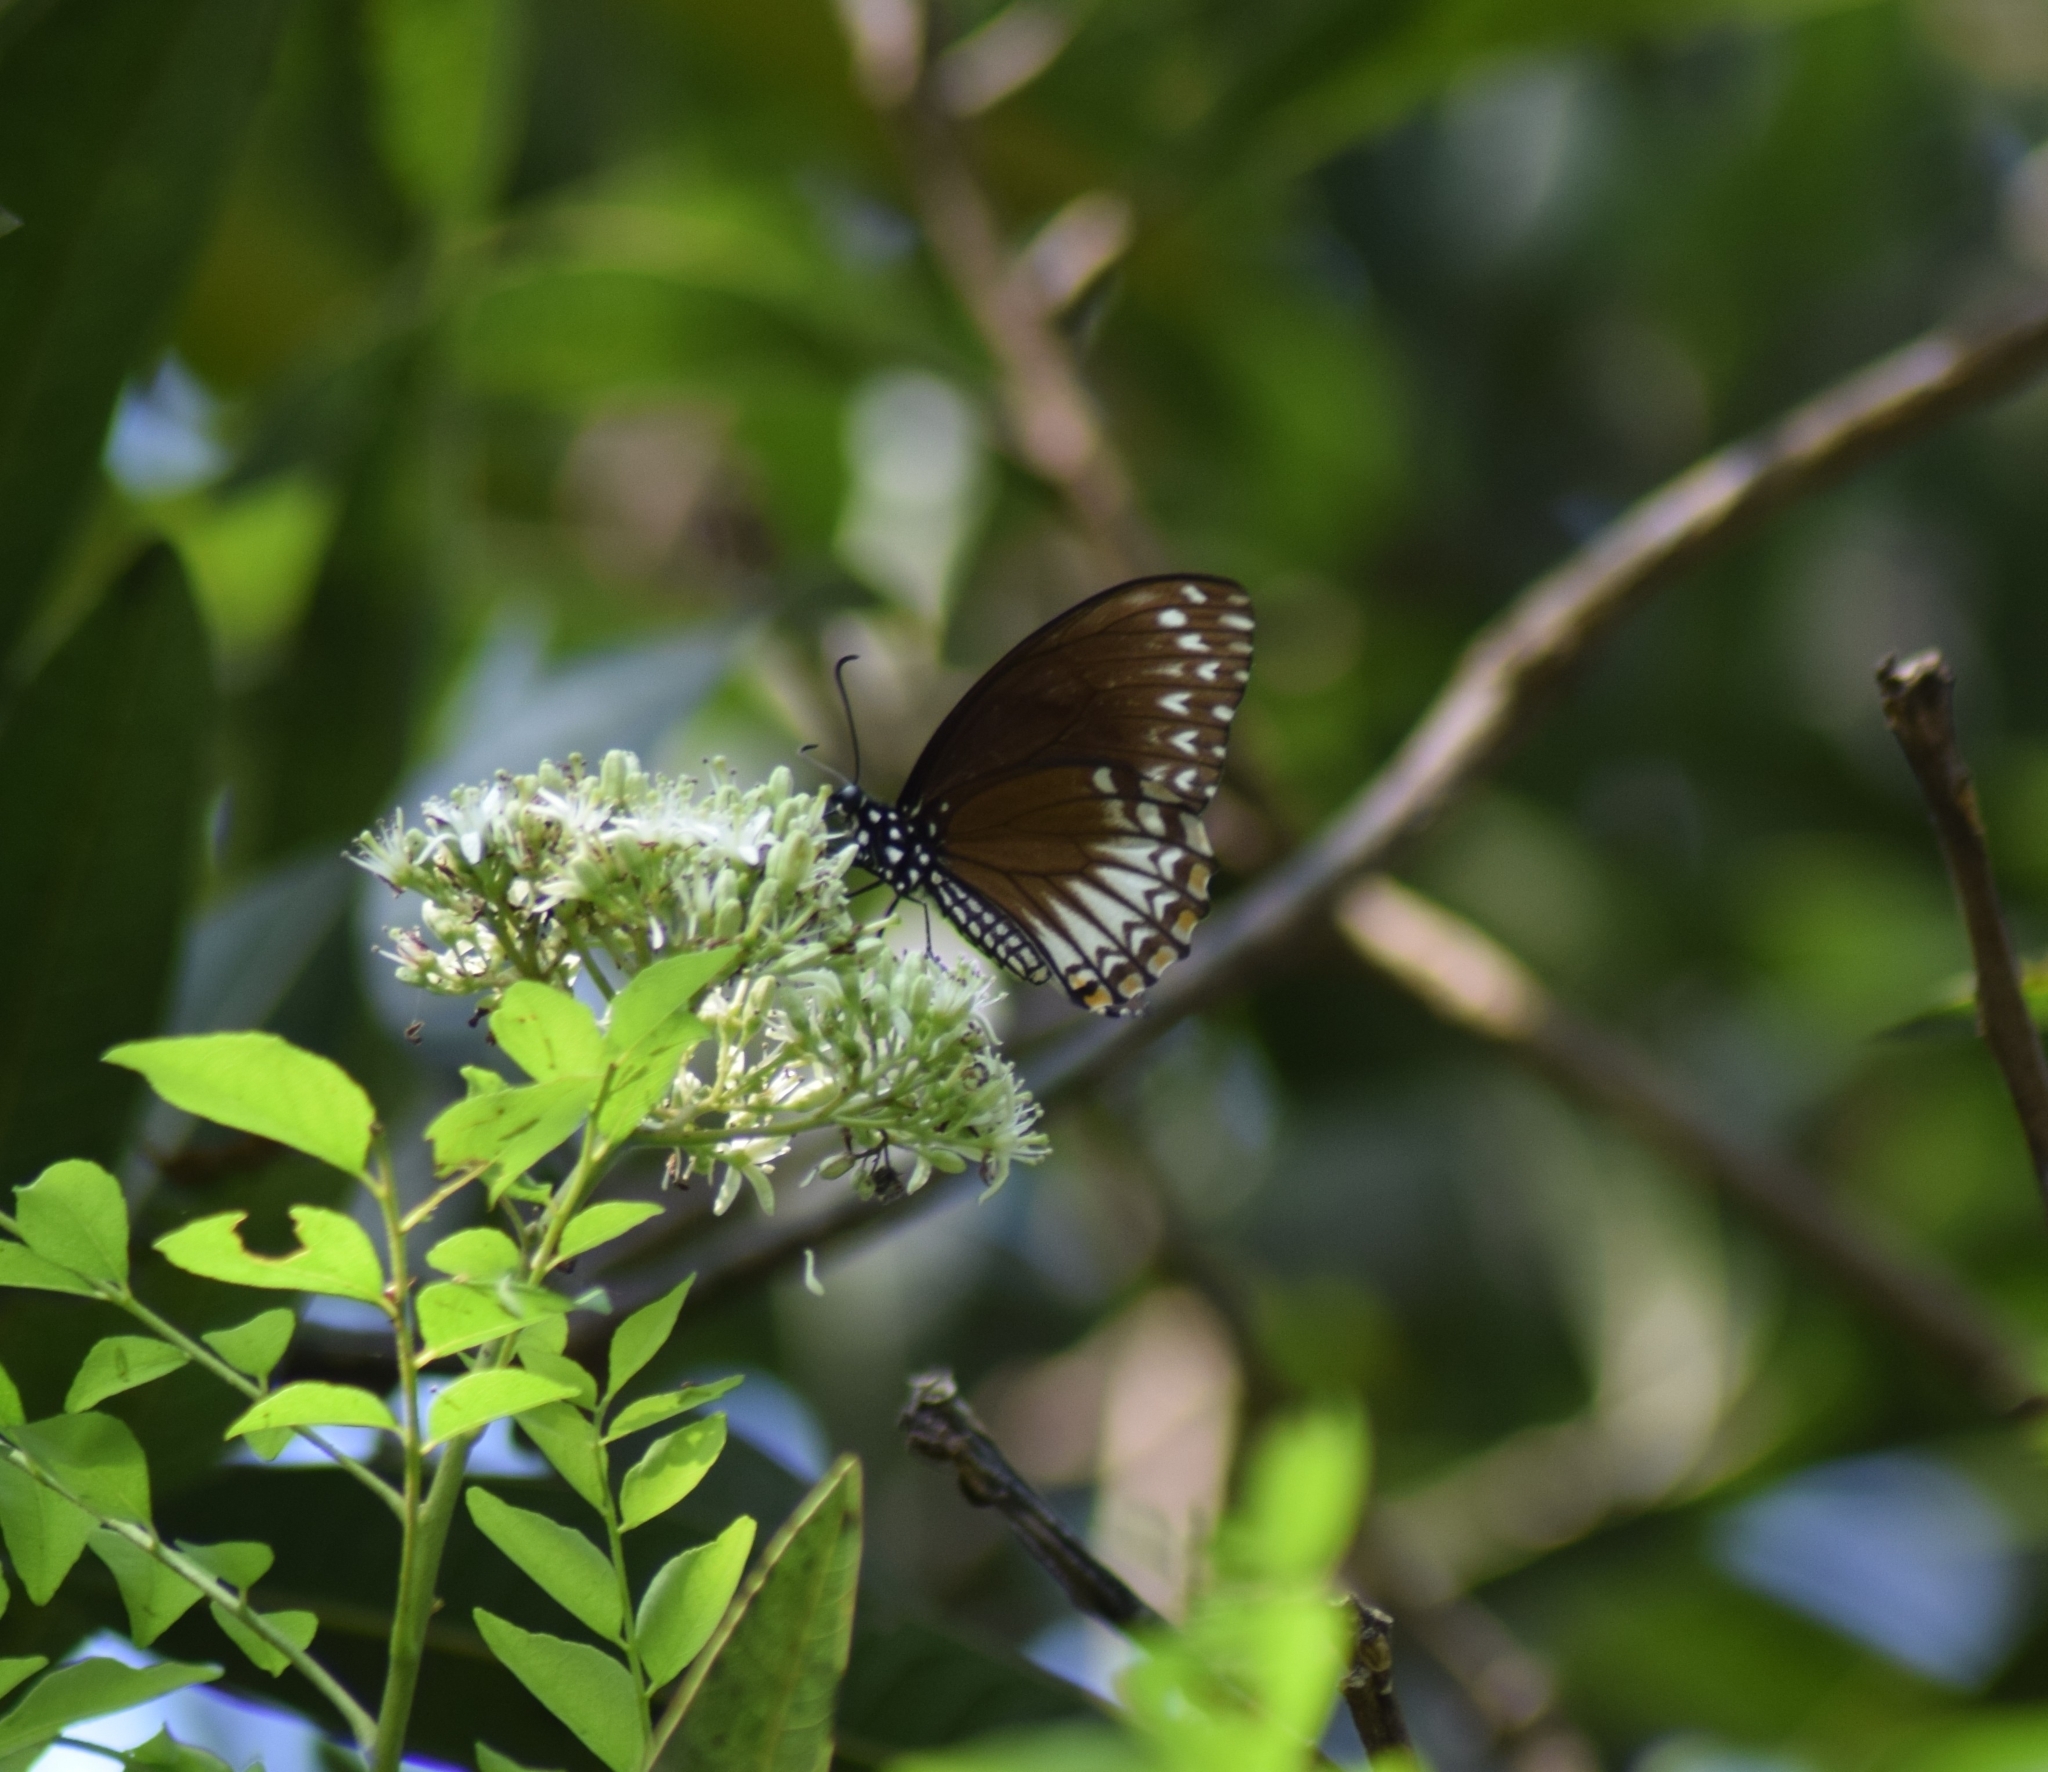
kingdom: Animalia
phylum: Arthropoda
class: Insecta
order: Lepidoptera
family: Papilionidae
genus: Chilasa
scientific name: Chilasa clytia
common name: Common mime
